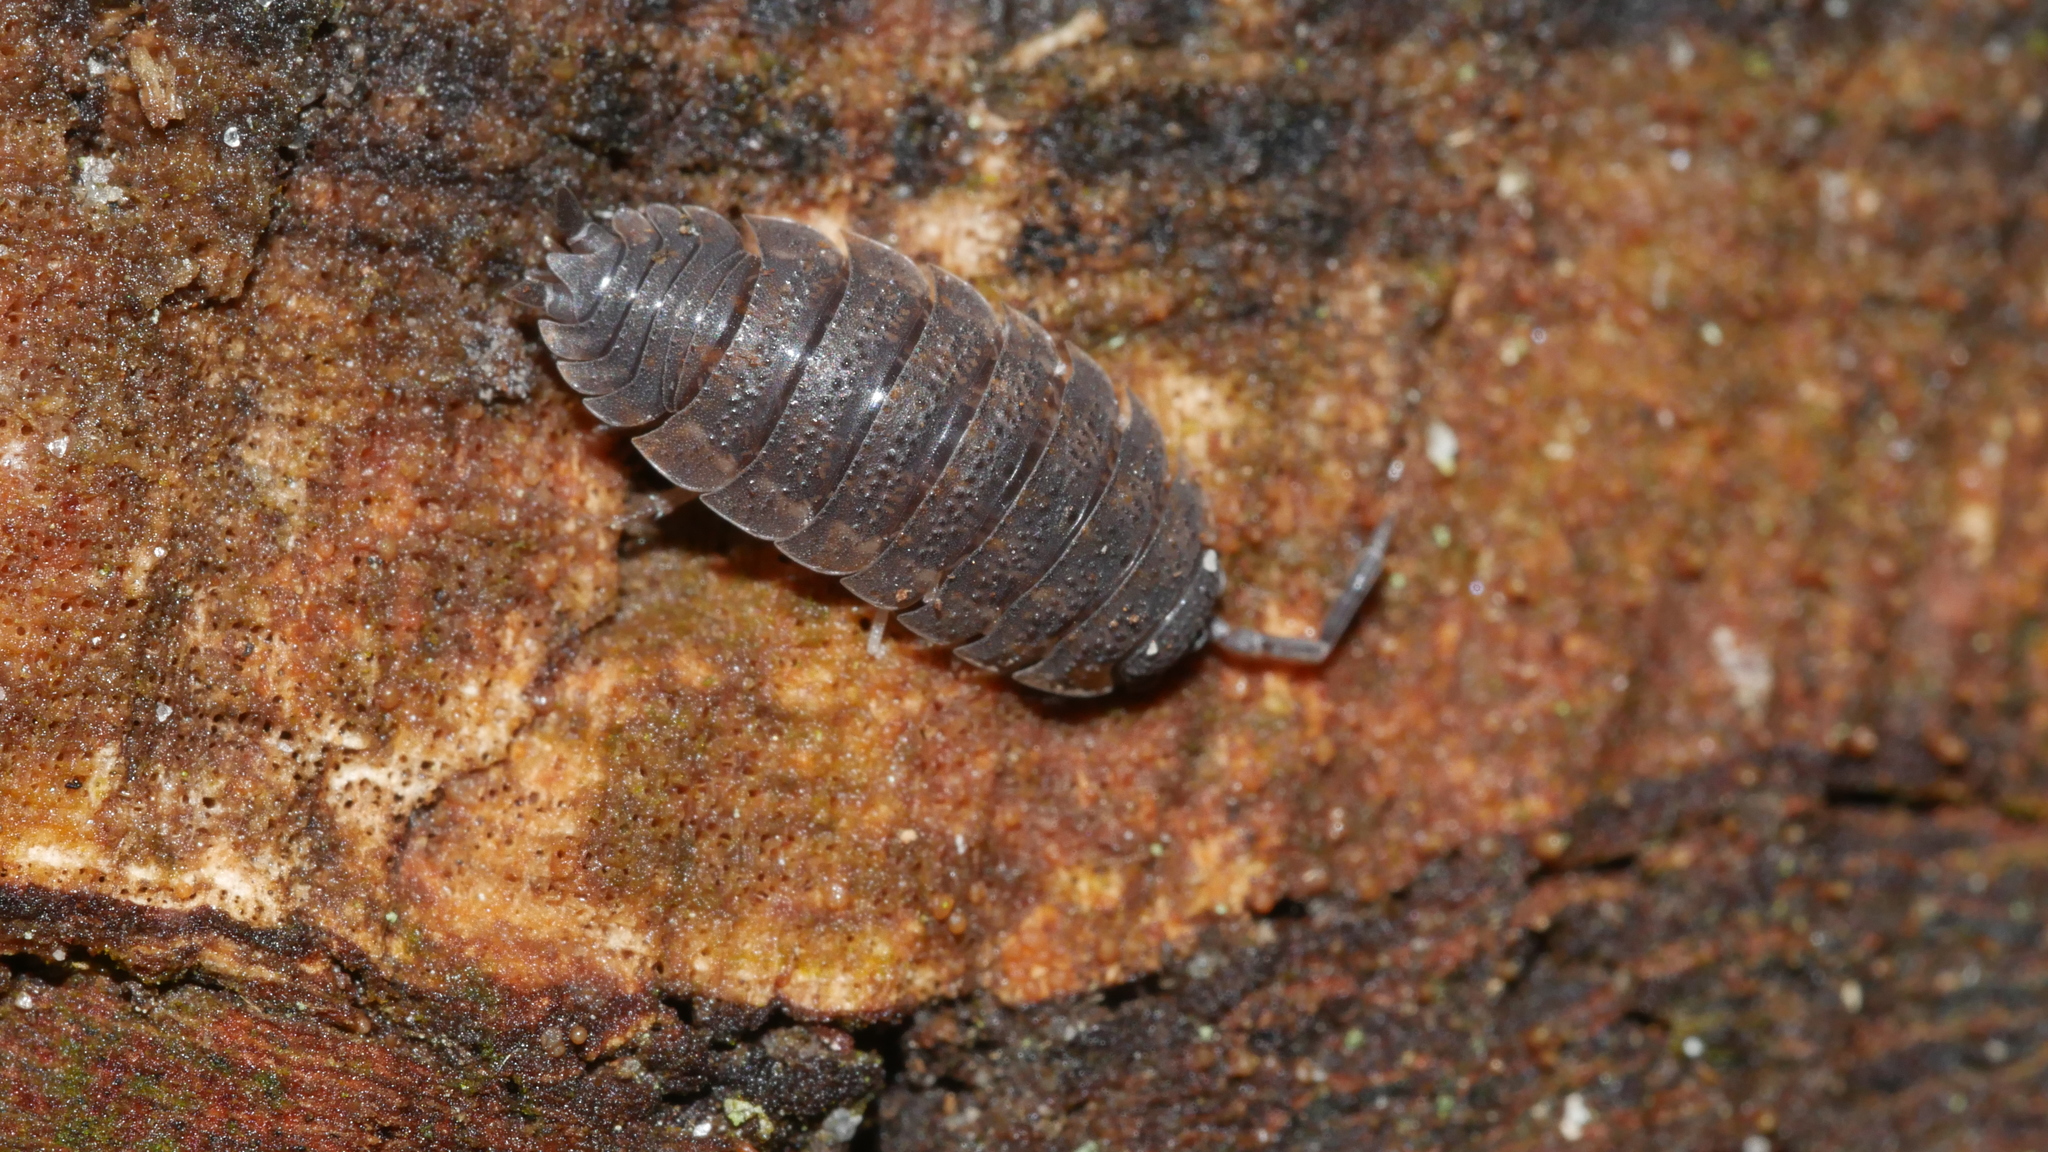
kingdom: Animalia
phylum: Arthropoda
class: Malacostraca
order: Isopoda
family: Porcellionidae
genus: Porcellio
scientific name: Porcellio scaber
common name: Common rough woodlouse
